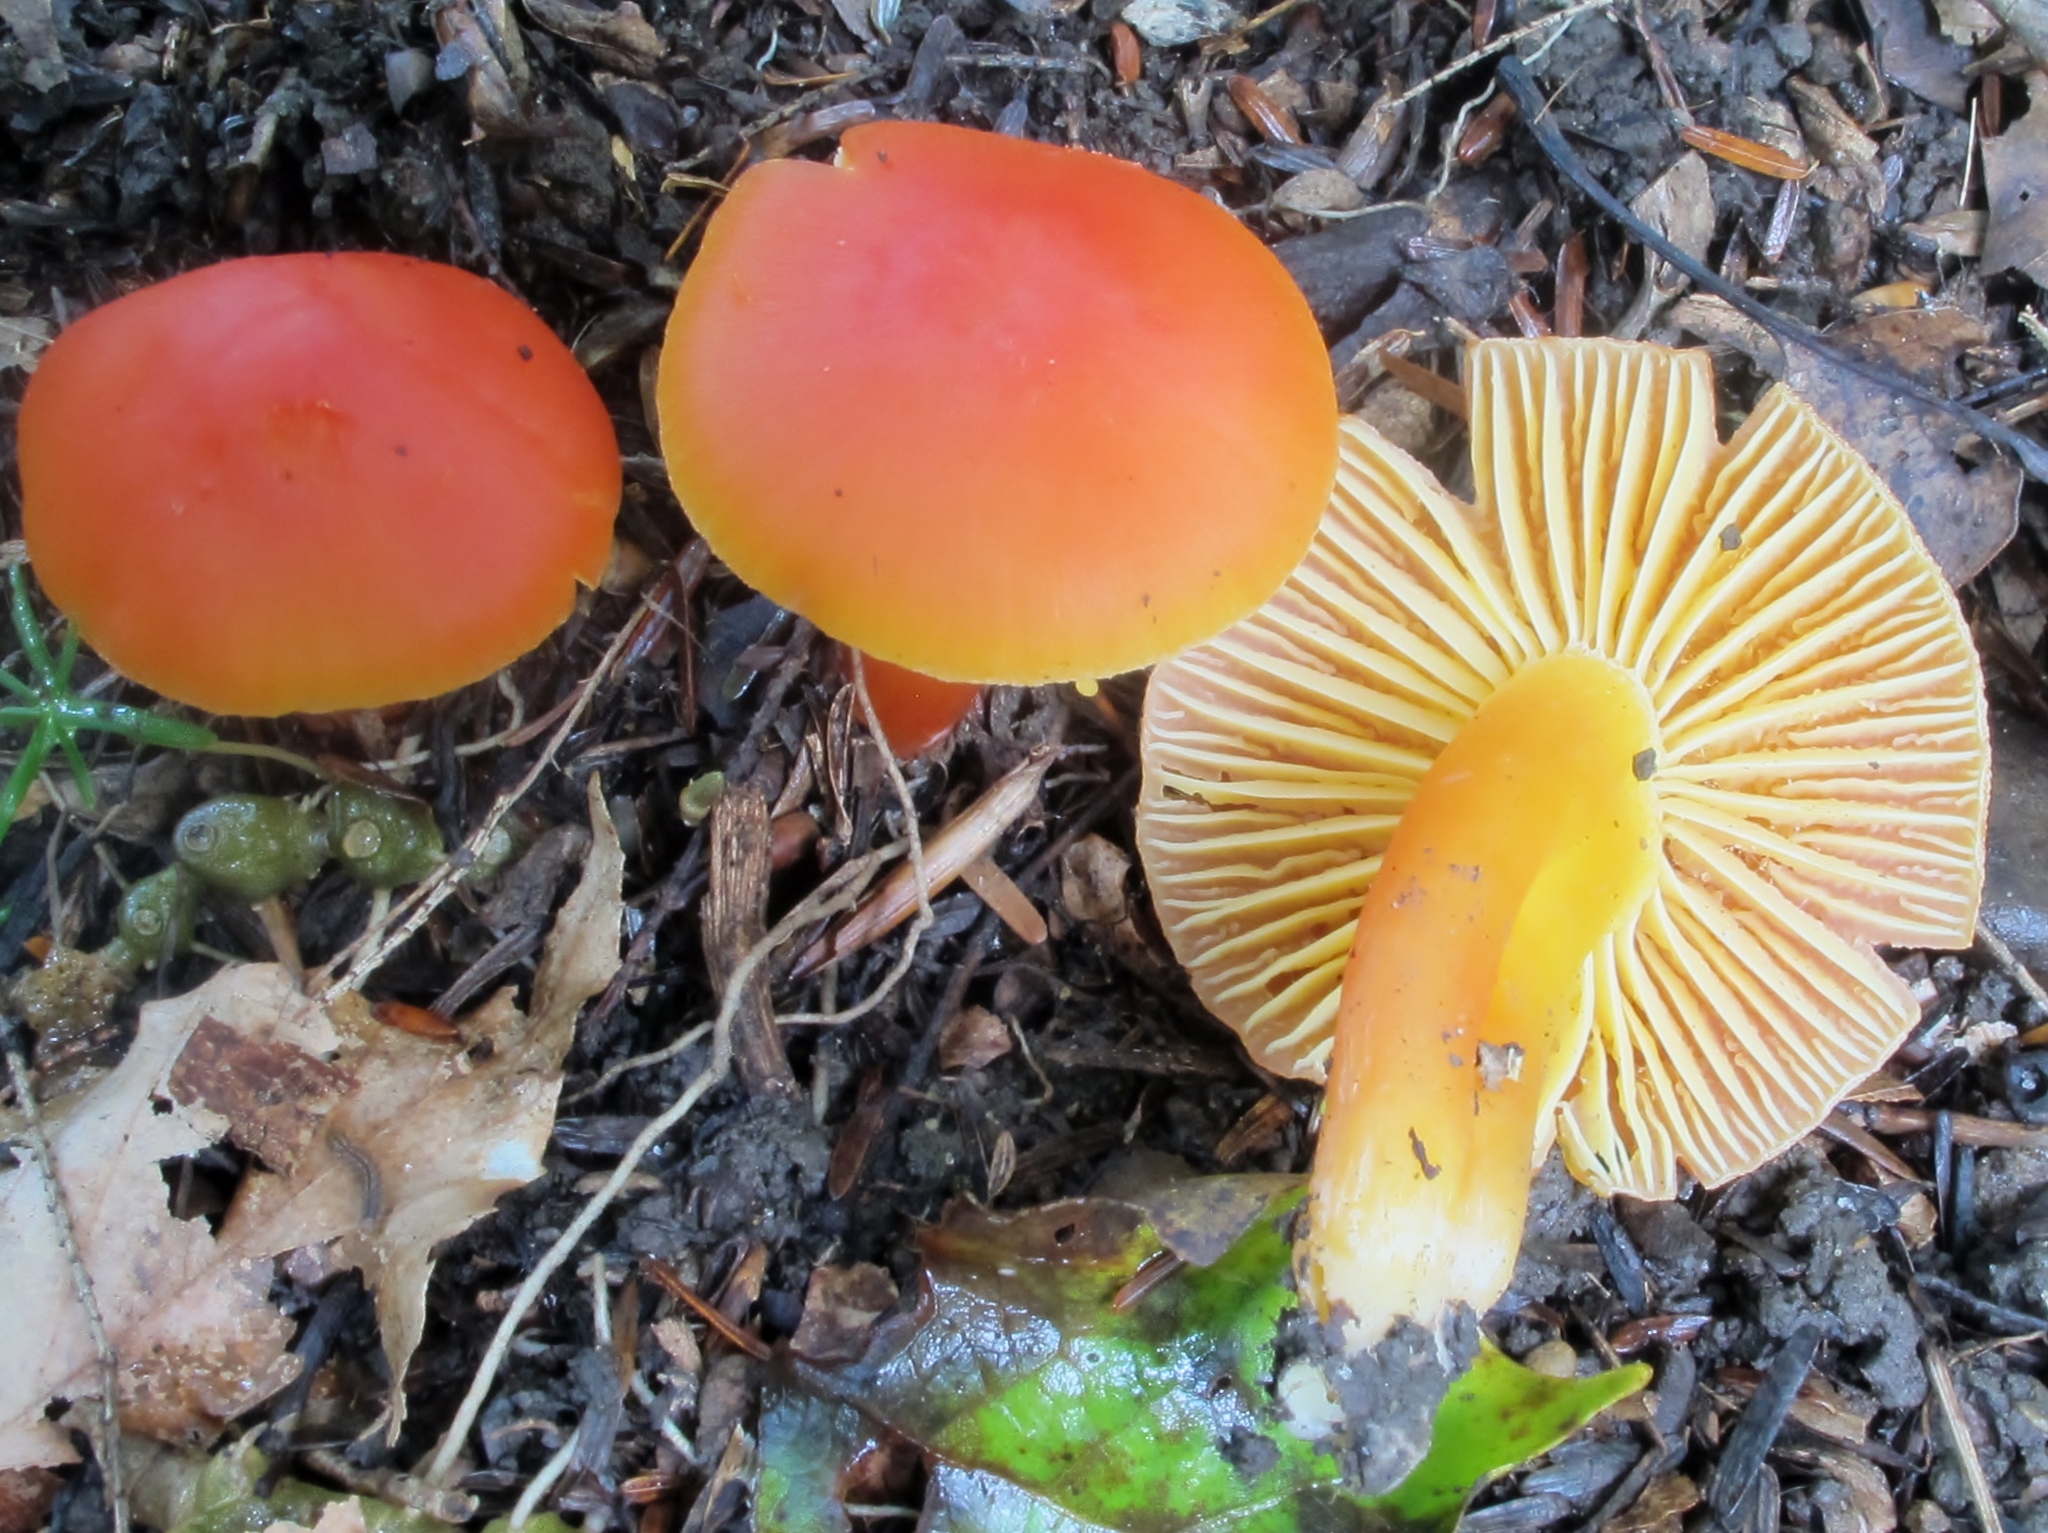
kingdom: Fungi
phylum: Basidiomycota
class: Agaricomycetes
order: Agaricales
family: Hygrophoraceae
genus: Hygrocybe
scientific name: Hygrocybe coccinea
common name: Scarlet hood
